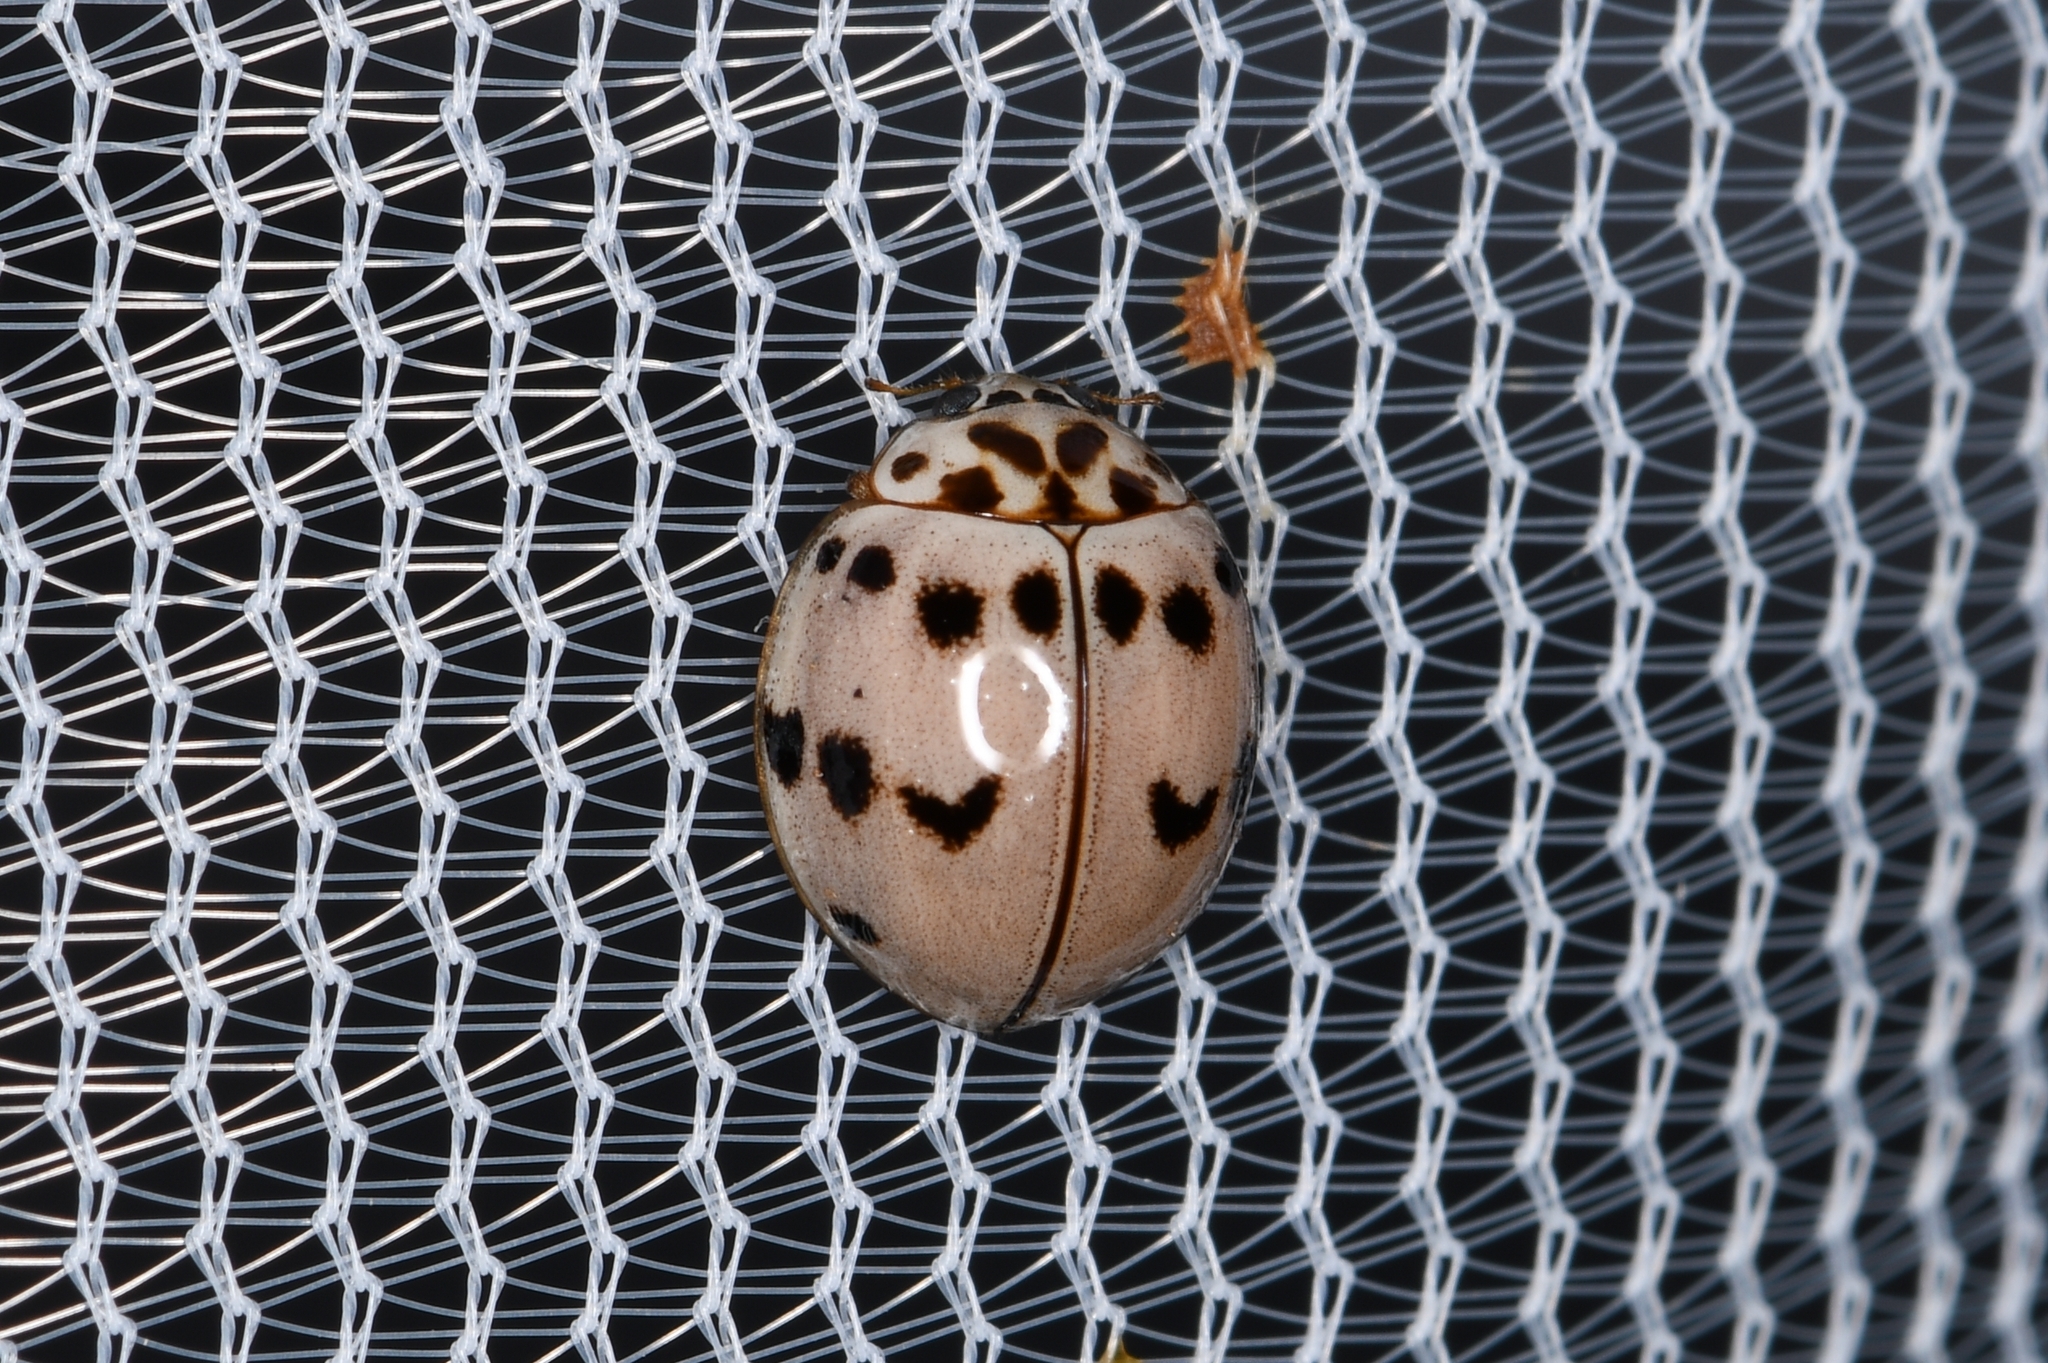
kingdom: Animalia
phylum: Arthropoda
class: Insecta
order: Coleoptera
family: Coccinellidae
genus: Olla
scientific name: Olla v-nigrum
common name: Ashy gray lady beetle
